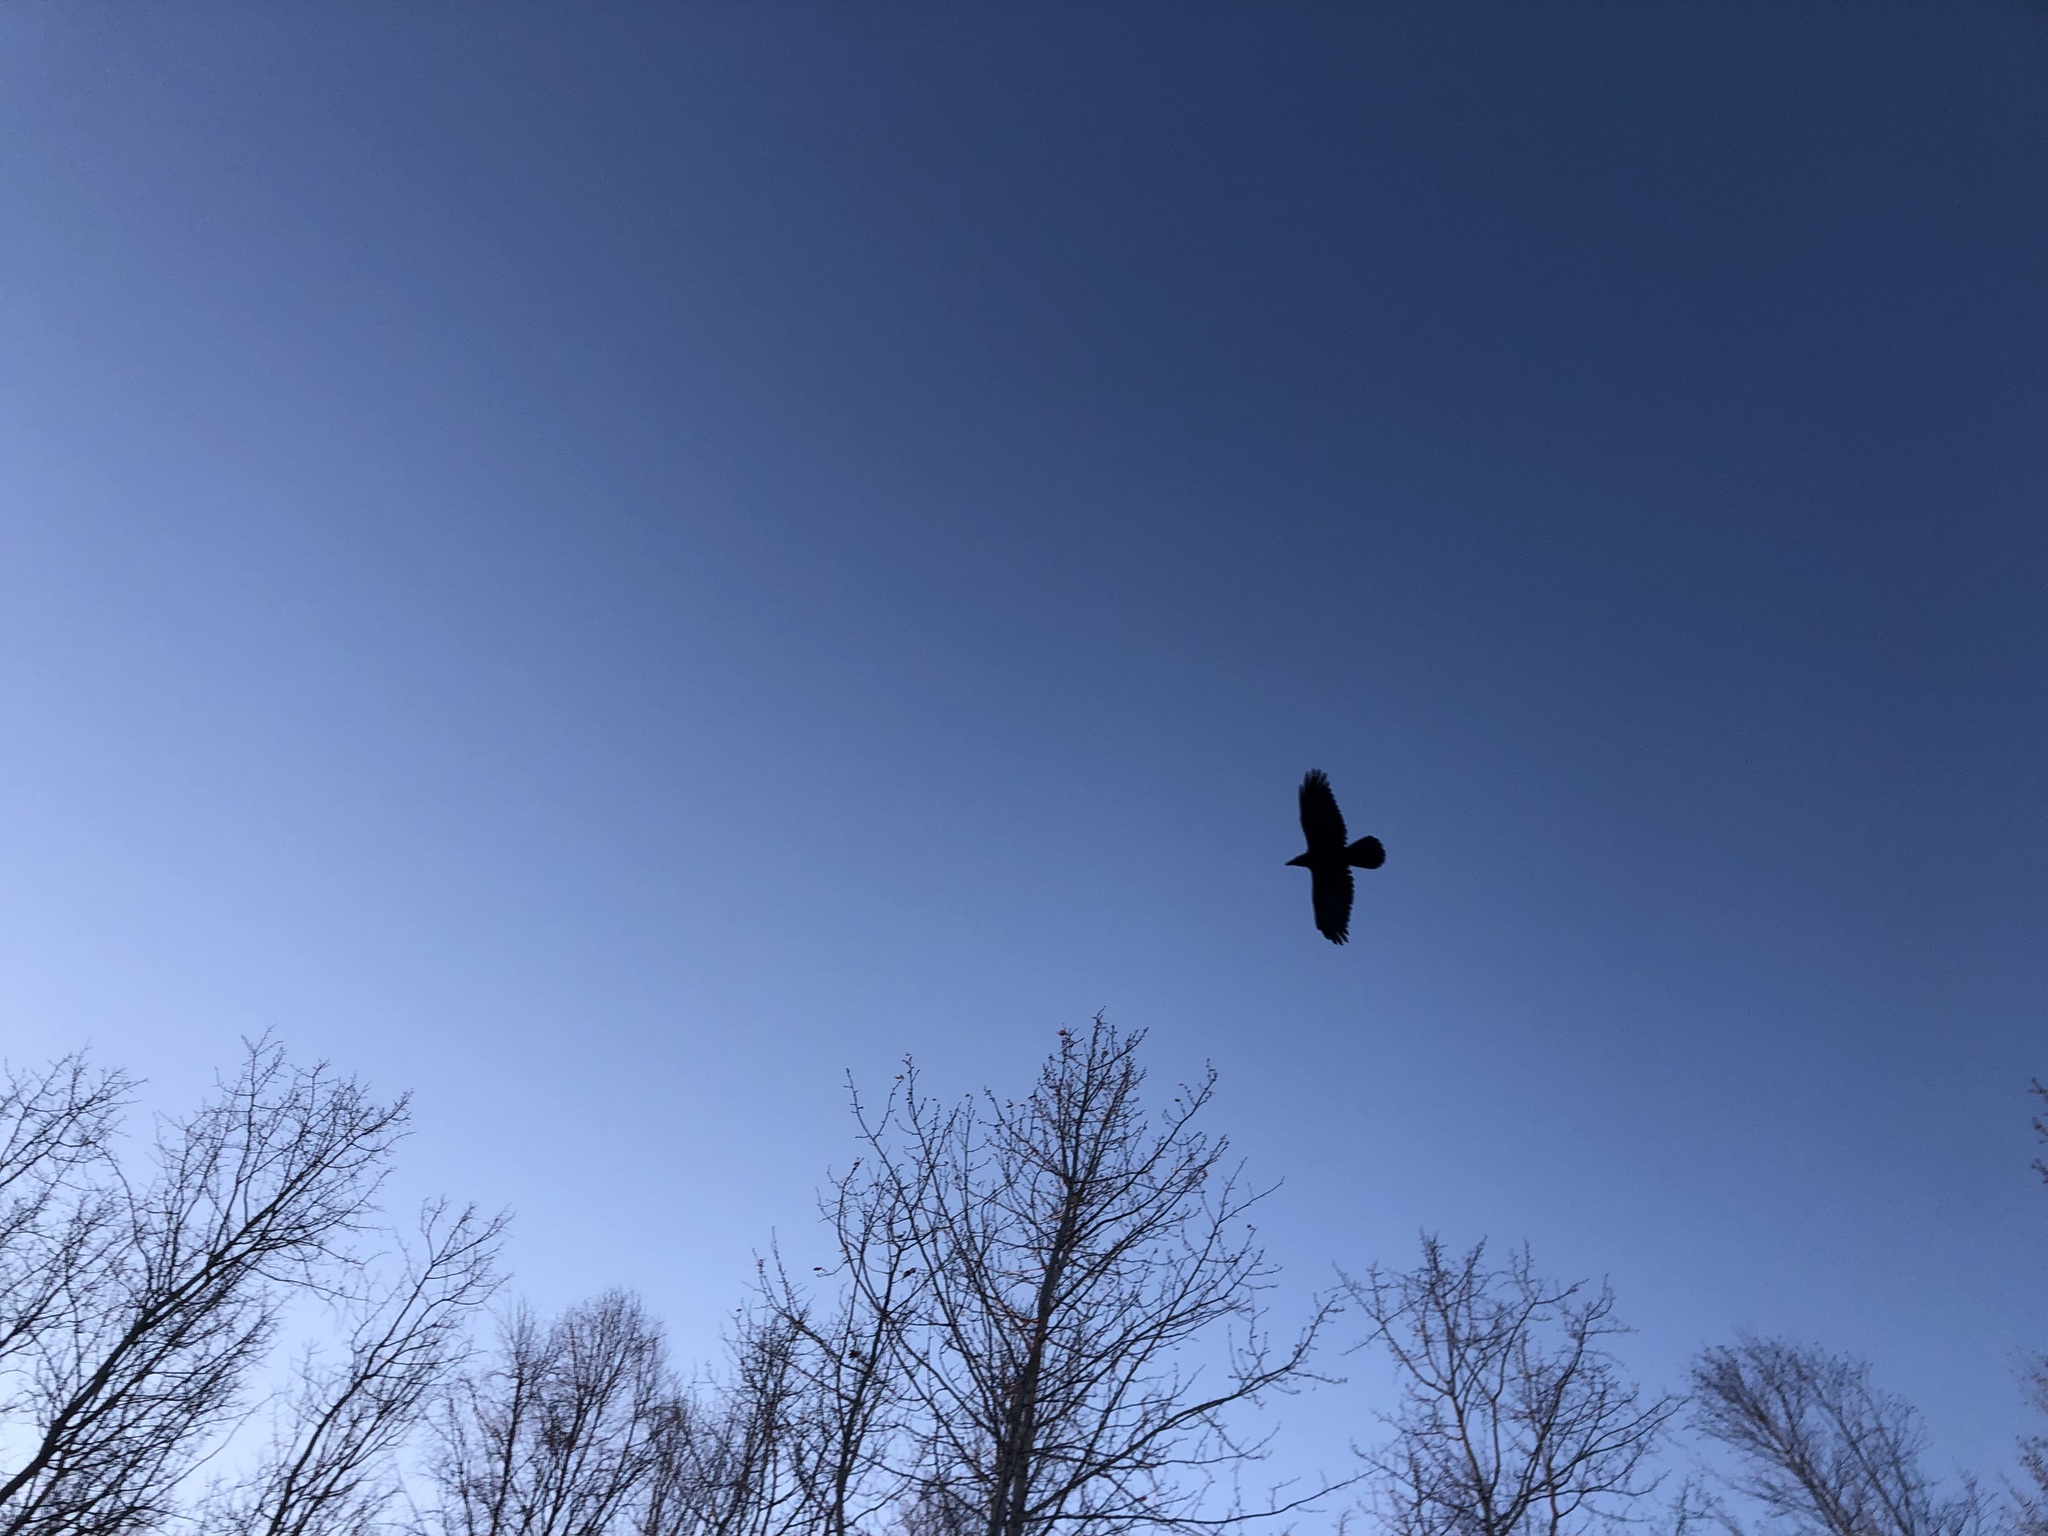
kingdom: Animalia
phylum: Chordata
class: Aves
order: Passeriformes
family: Corvidae
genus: Corvus
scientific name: Corvus corax
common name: Common raven
